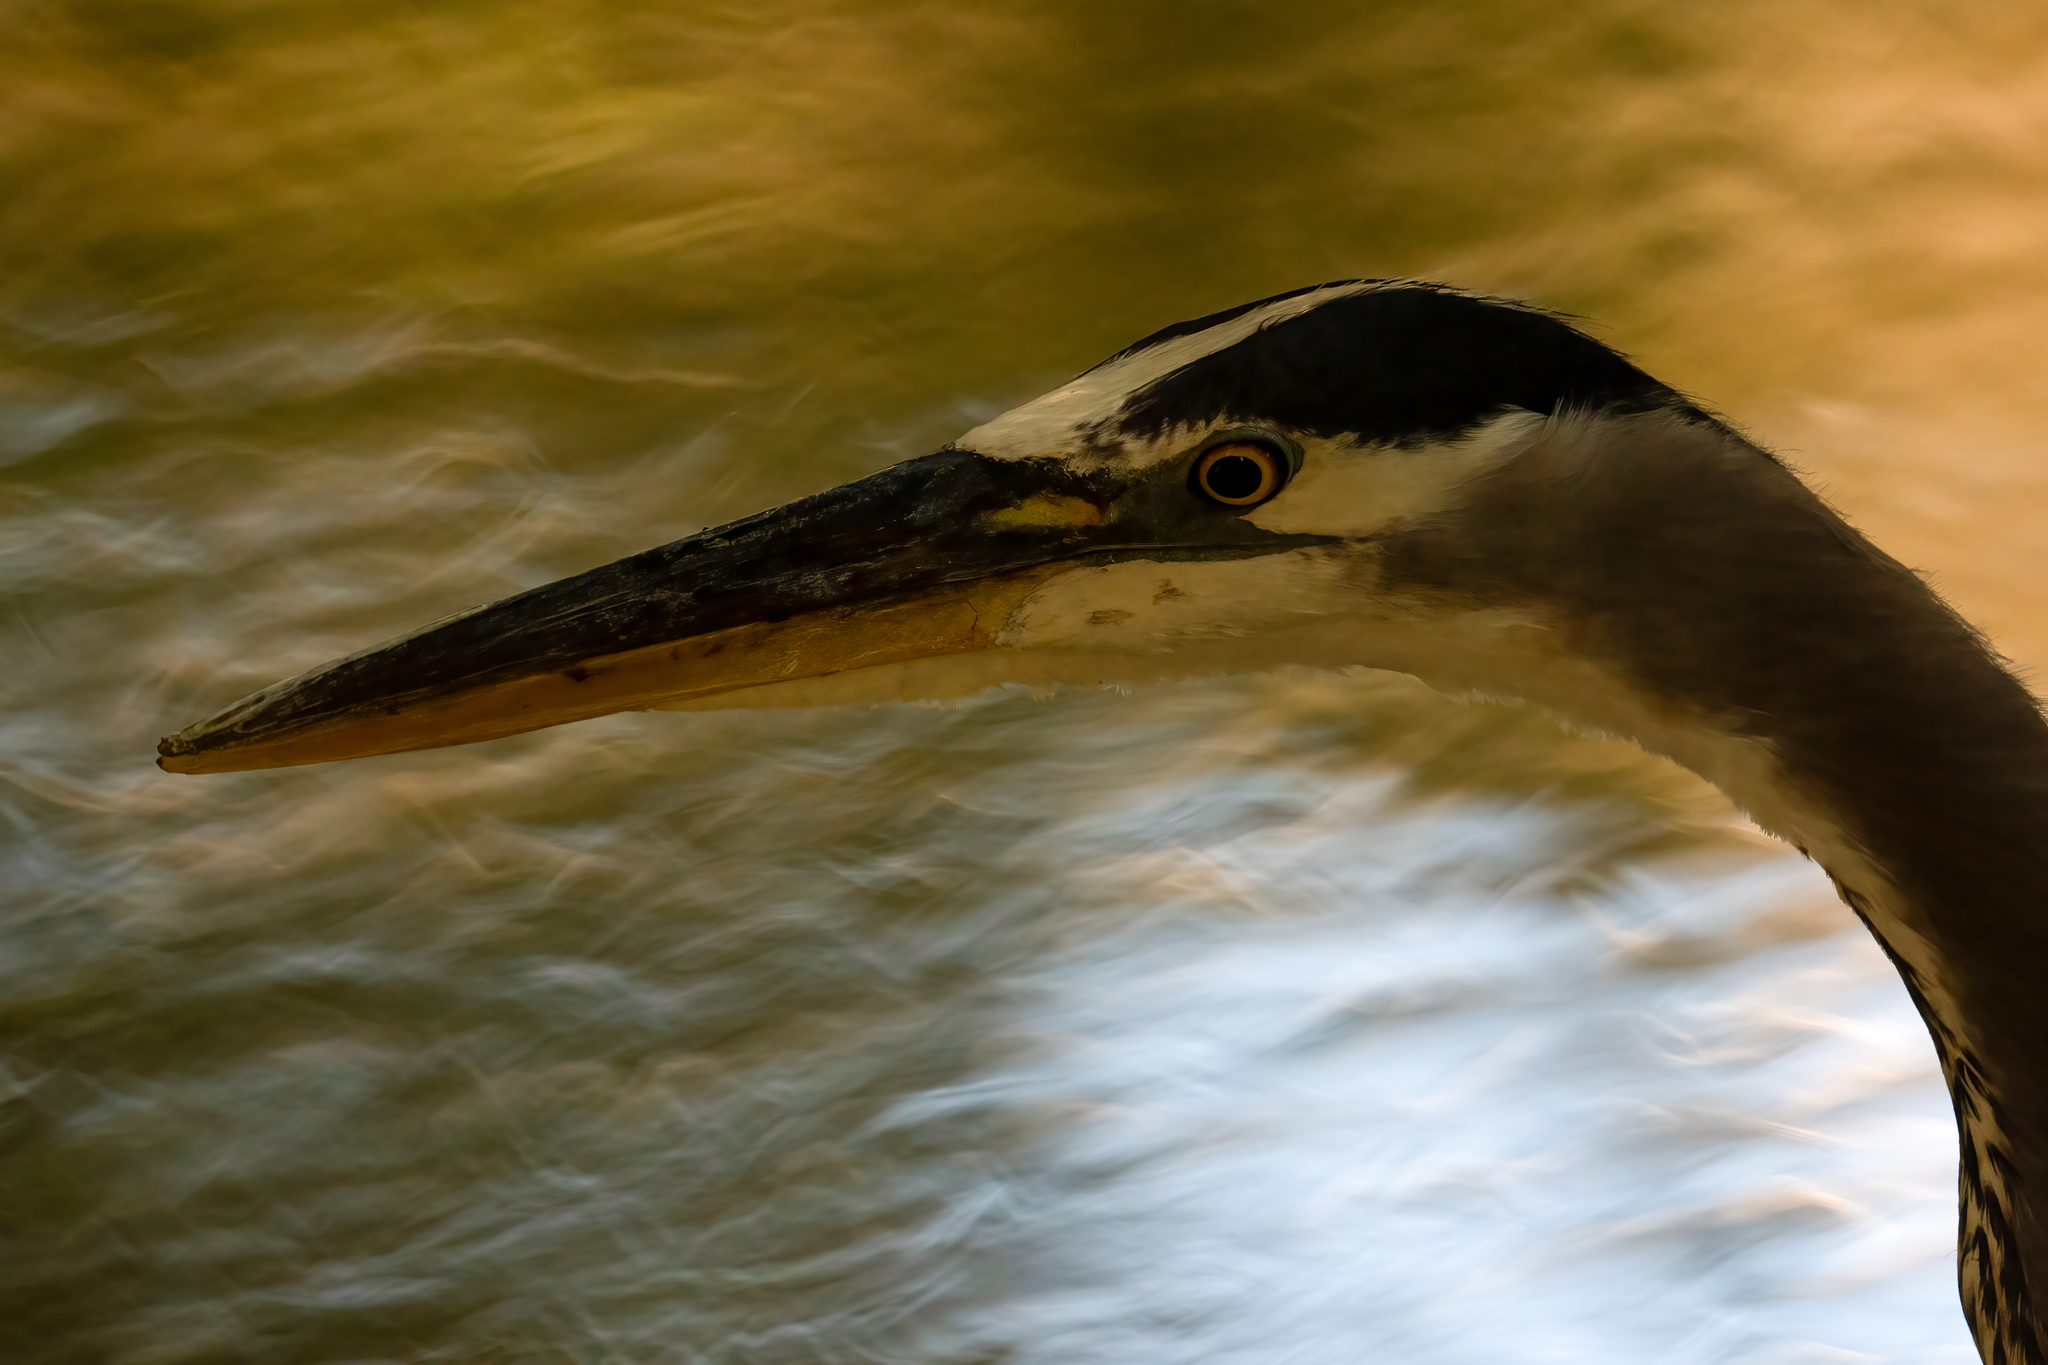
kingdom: Animalia
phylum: Chordata
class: Aves
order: Pelecaniformes
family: Ardeidae
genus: Ardea
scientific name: Ardea herodias
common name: Great blue heron
